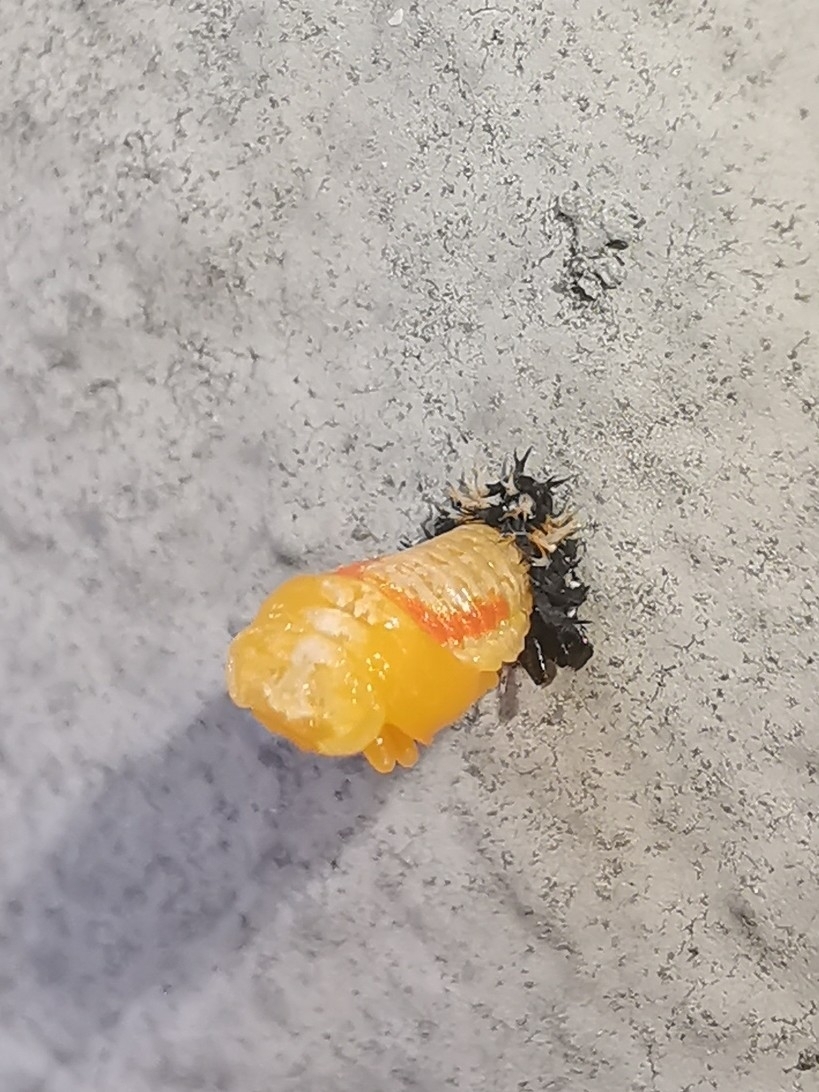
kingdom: Animalia
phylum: Arthropoda
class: Insecta
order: Coleoptera
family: Coccinellidae
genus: Harmonia
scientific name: Harmonia axyridis
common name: Harlequin ladybird
